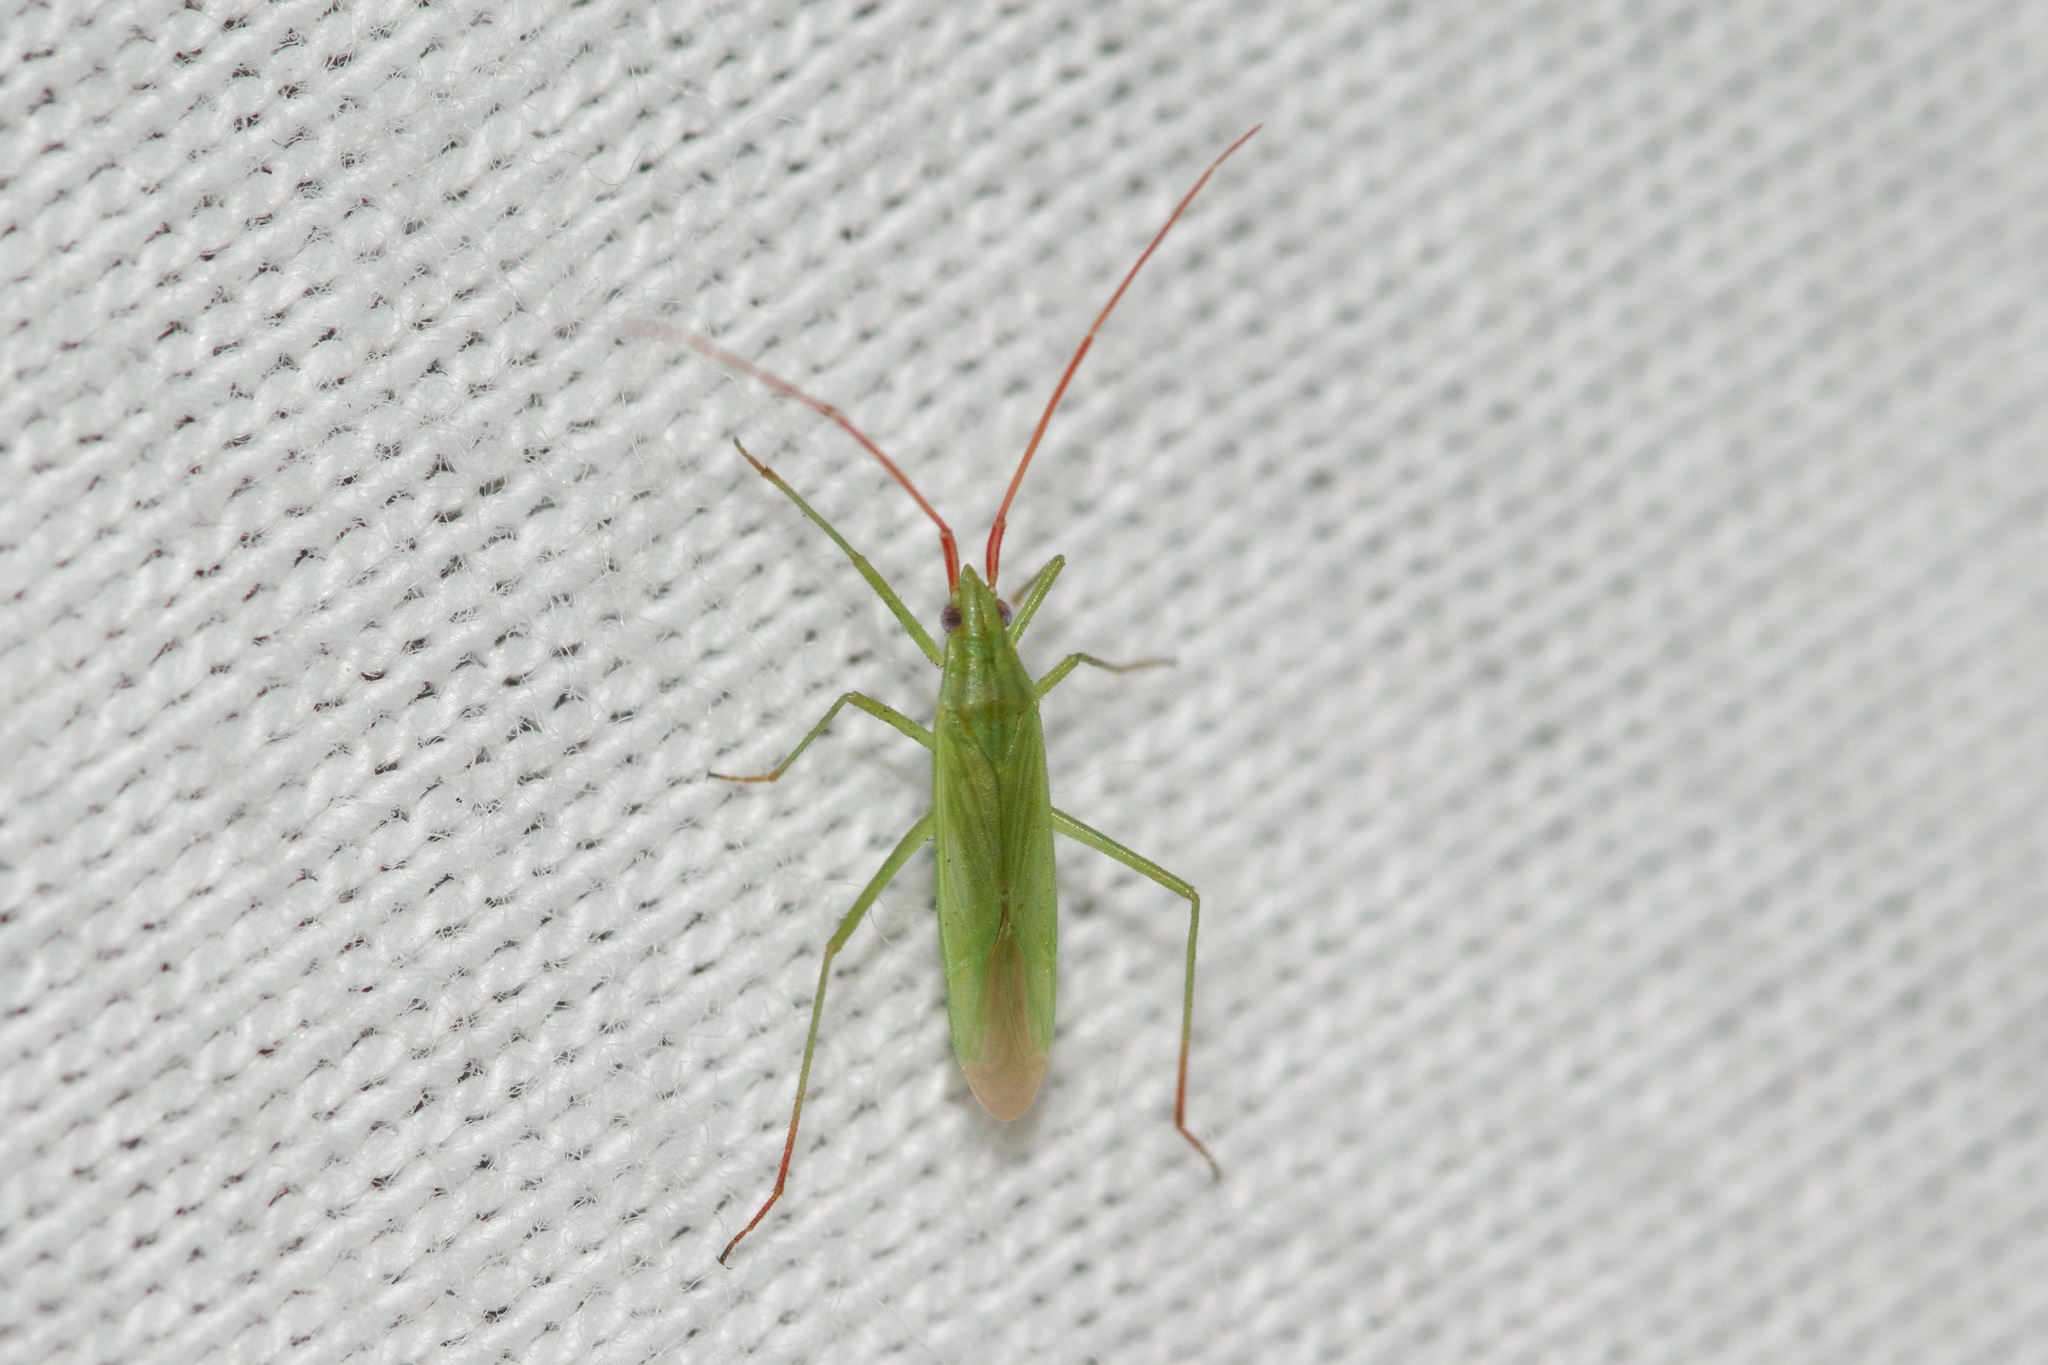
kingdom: Animalia
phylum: Arthropoda
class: Insecta
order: Hemiptera
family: Miridae
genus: Trigonotylus
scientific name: Trigonotylus caelestialium
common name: Rice leaf bug
